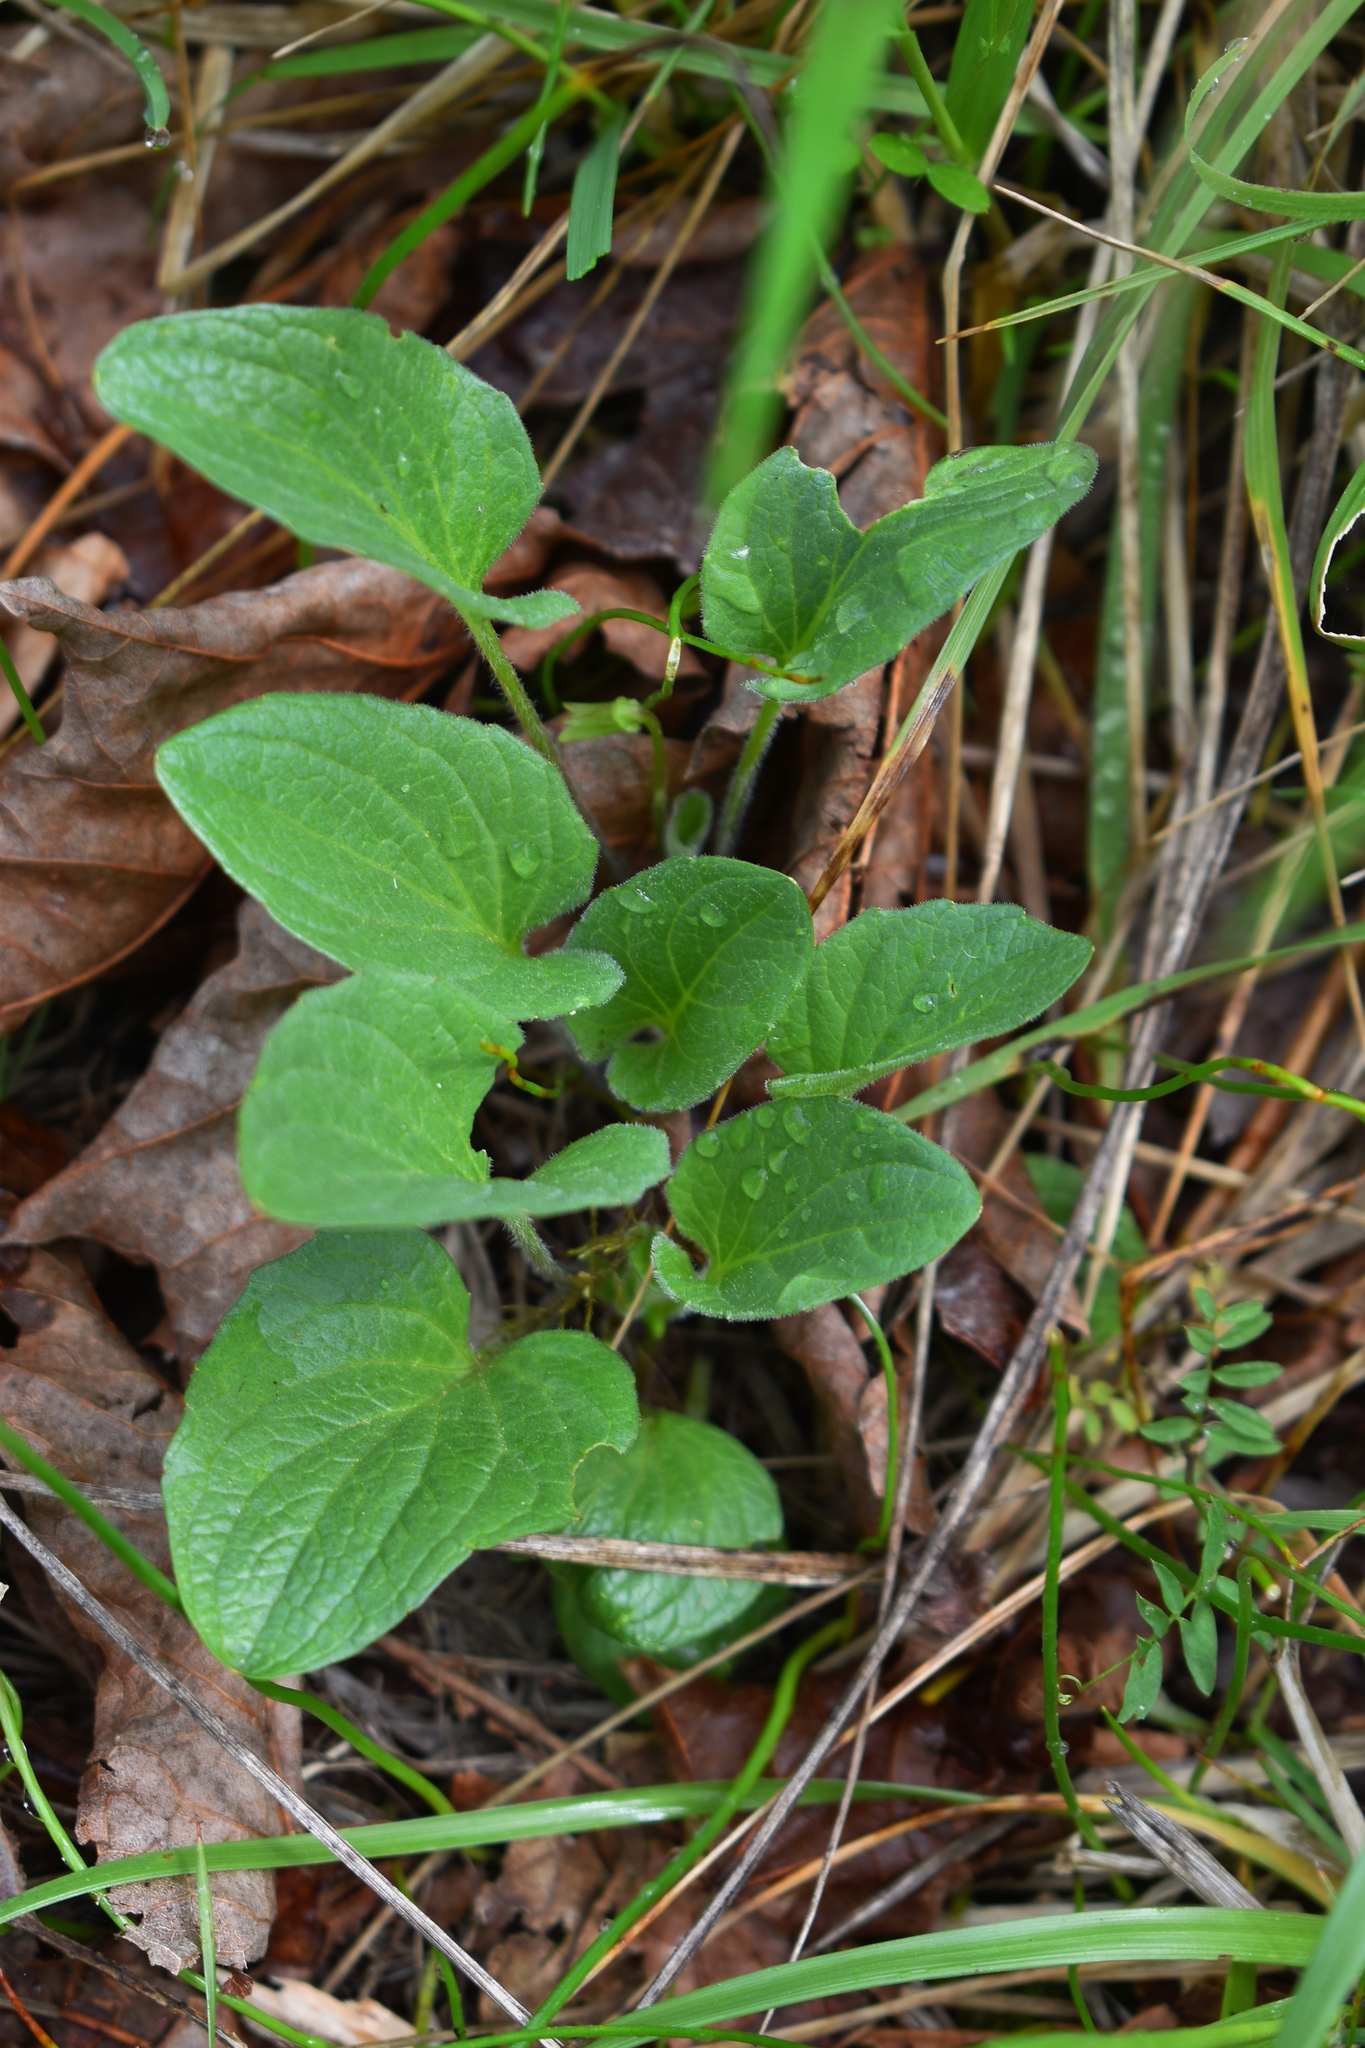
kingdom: Plantae
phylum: Tracheophyta
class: Magnoliopsida
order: Malpighiales
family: Violaceae
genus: Viola
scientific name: Viola praemorsa
